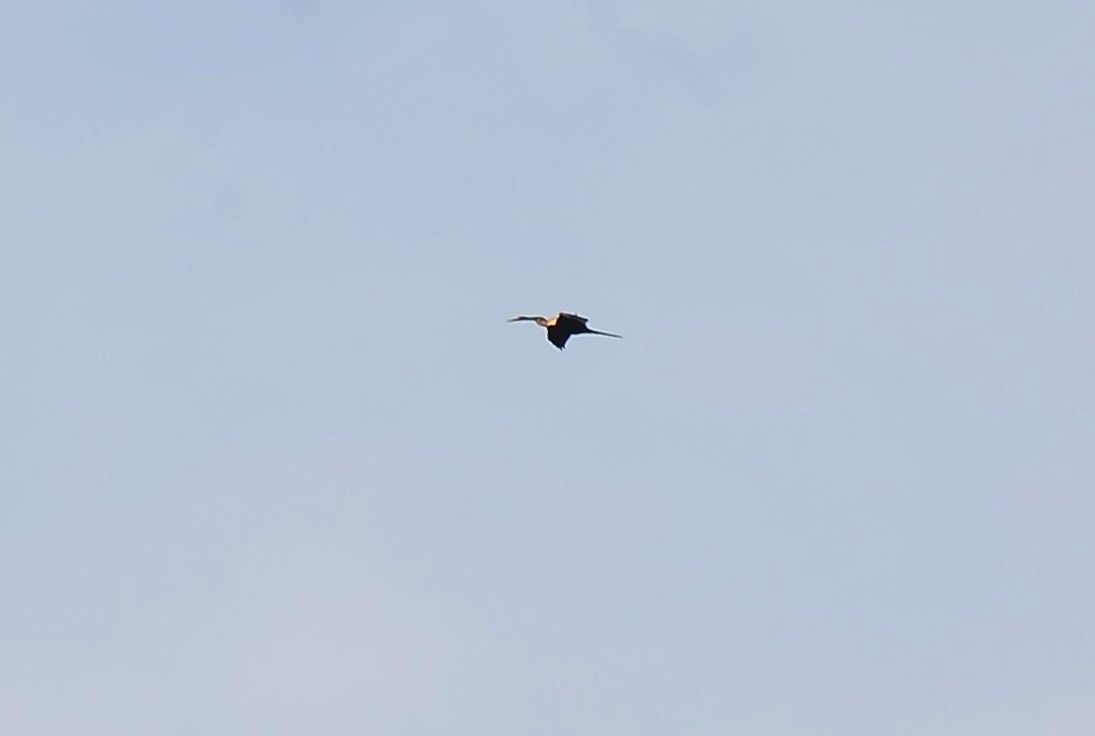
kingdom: Animalia
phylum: Chordata
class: Aves
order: Suliformes
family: Anhingidae
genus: Anhinga
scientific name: Anhinga melanogaster
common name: Oriental darter
